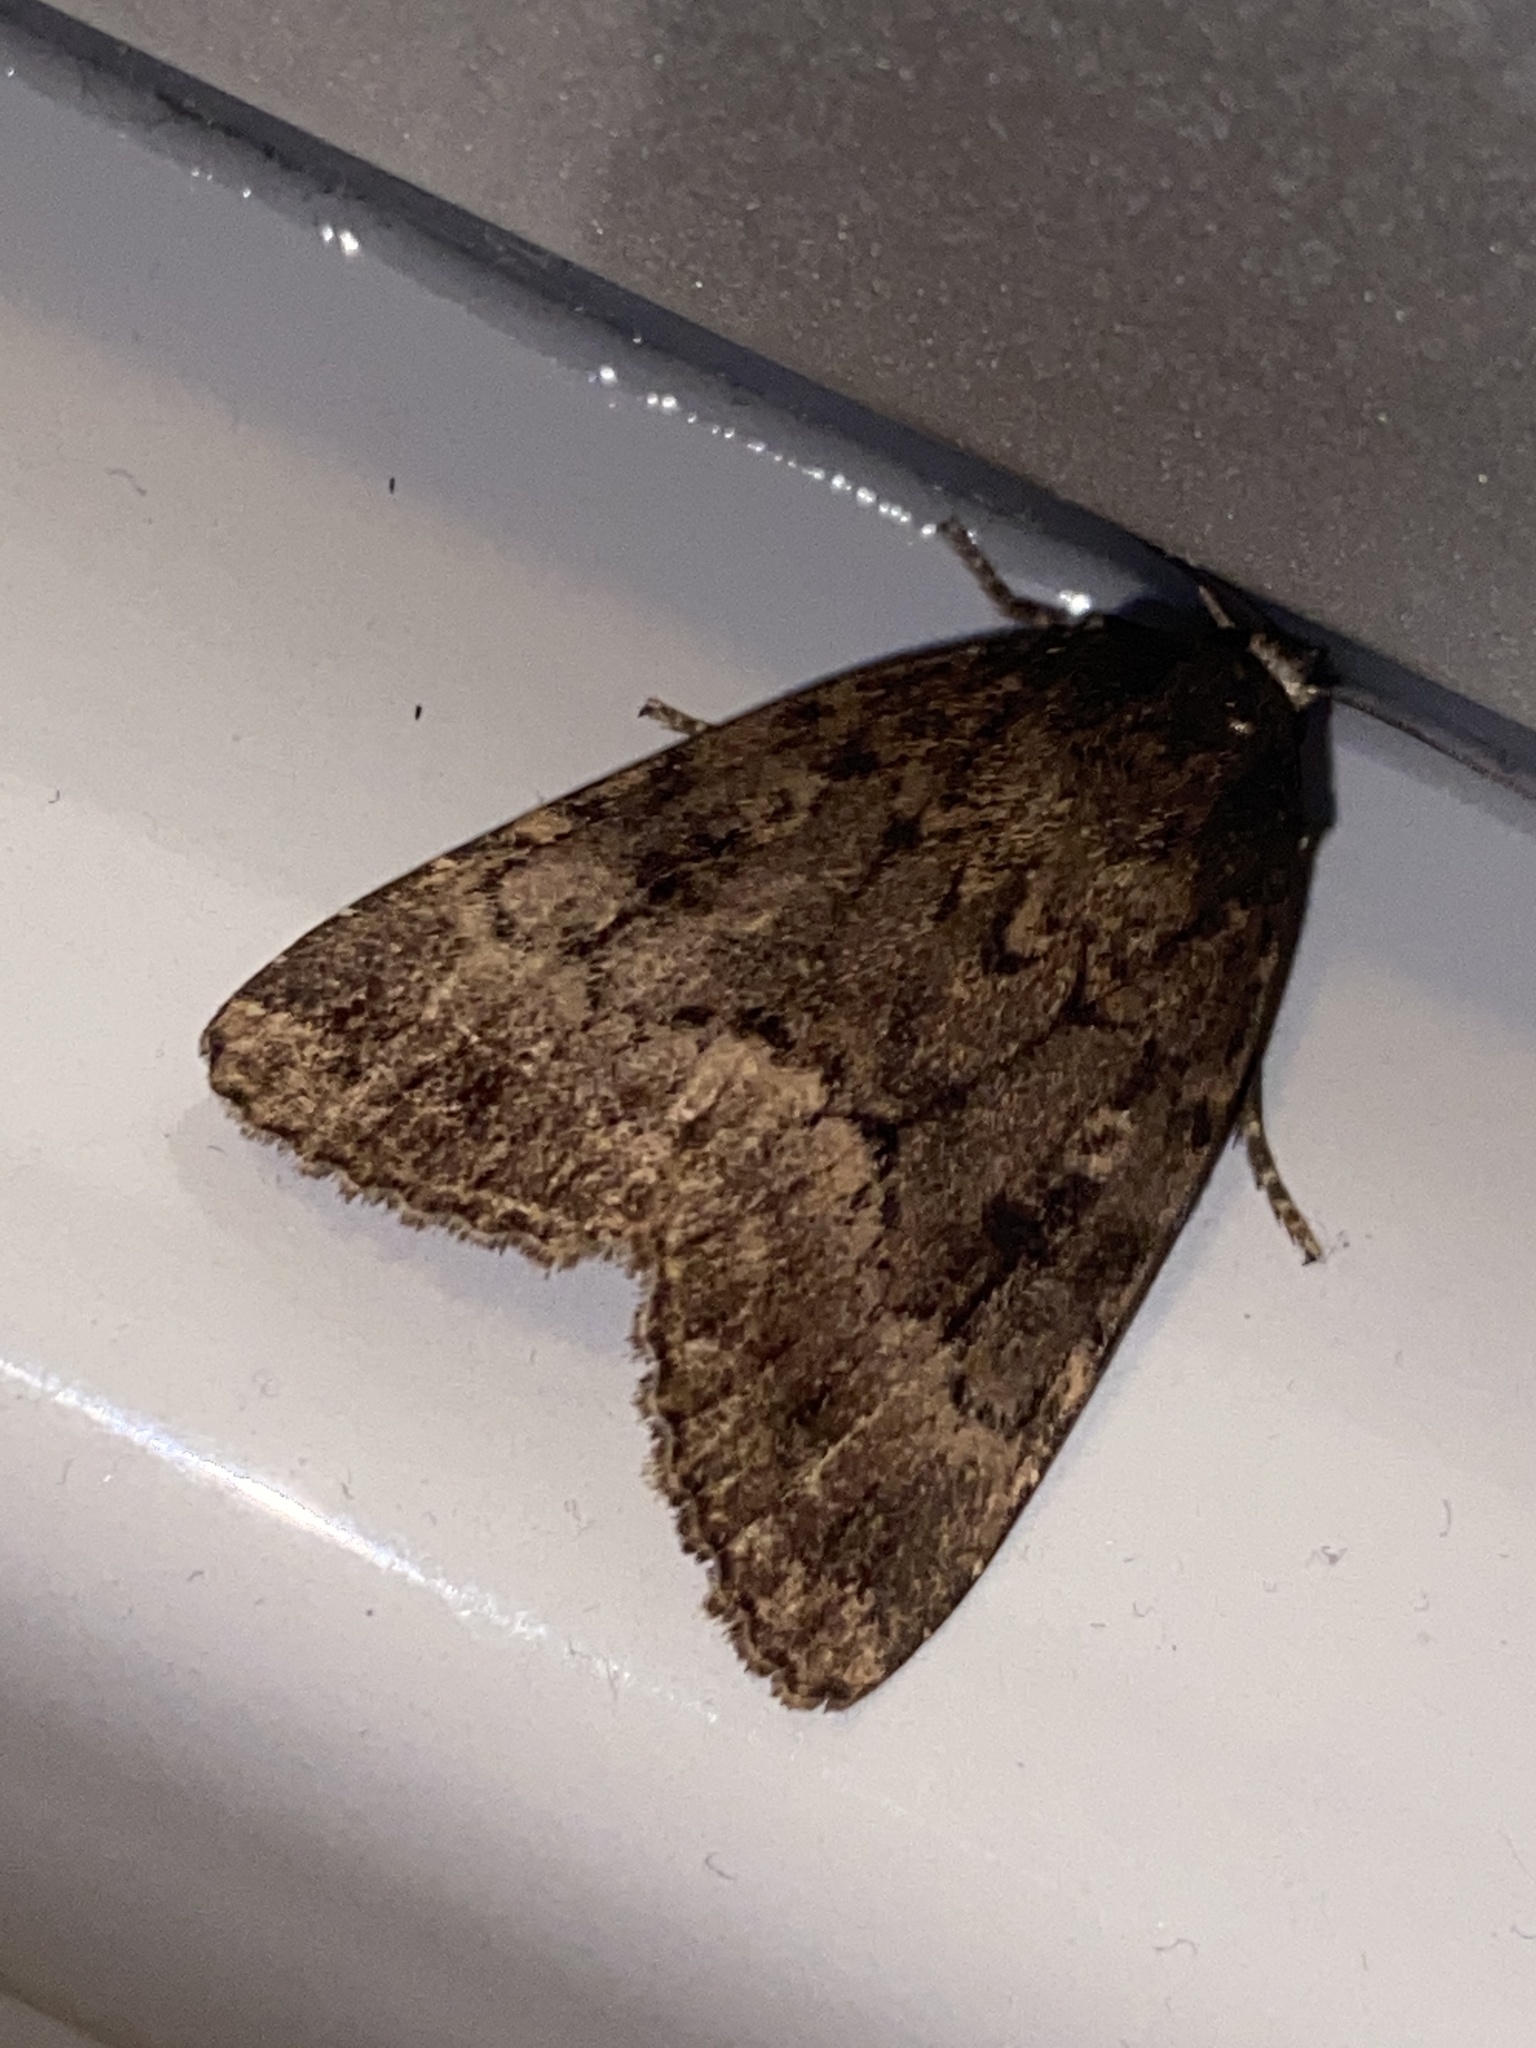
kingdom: Animalia
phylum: Arthropoda
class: Insecta
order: Lepidoptera
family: Noctuidae
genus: Amphipyra
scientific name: Amphipyra berbera
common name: Svensson's copper underwing
